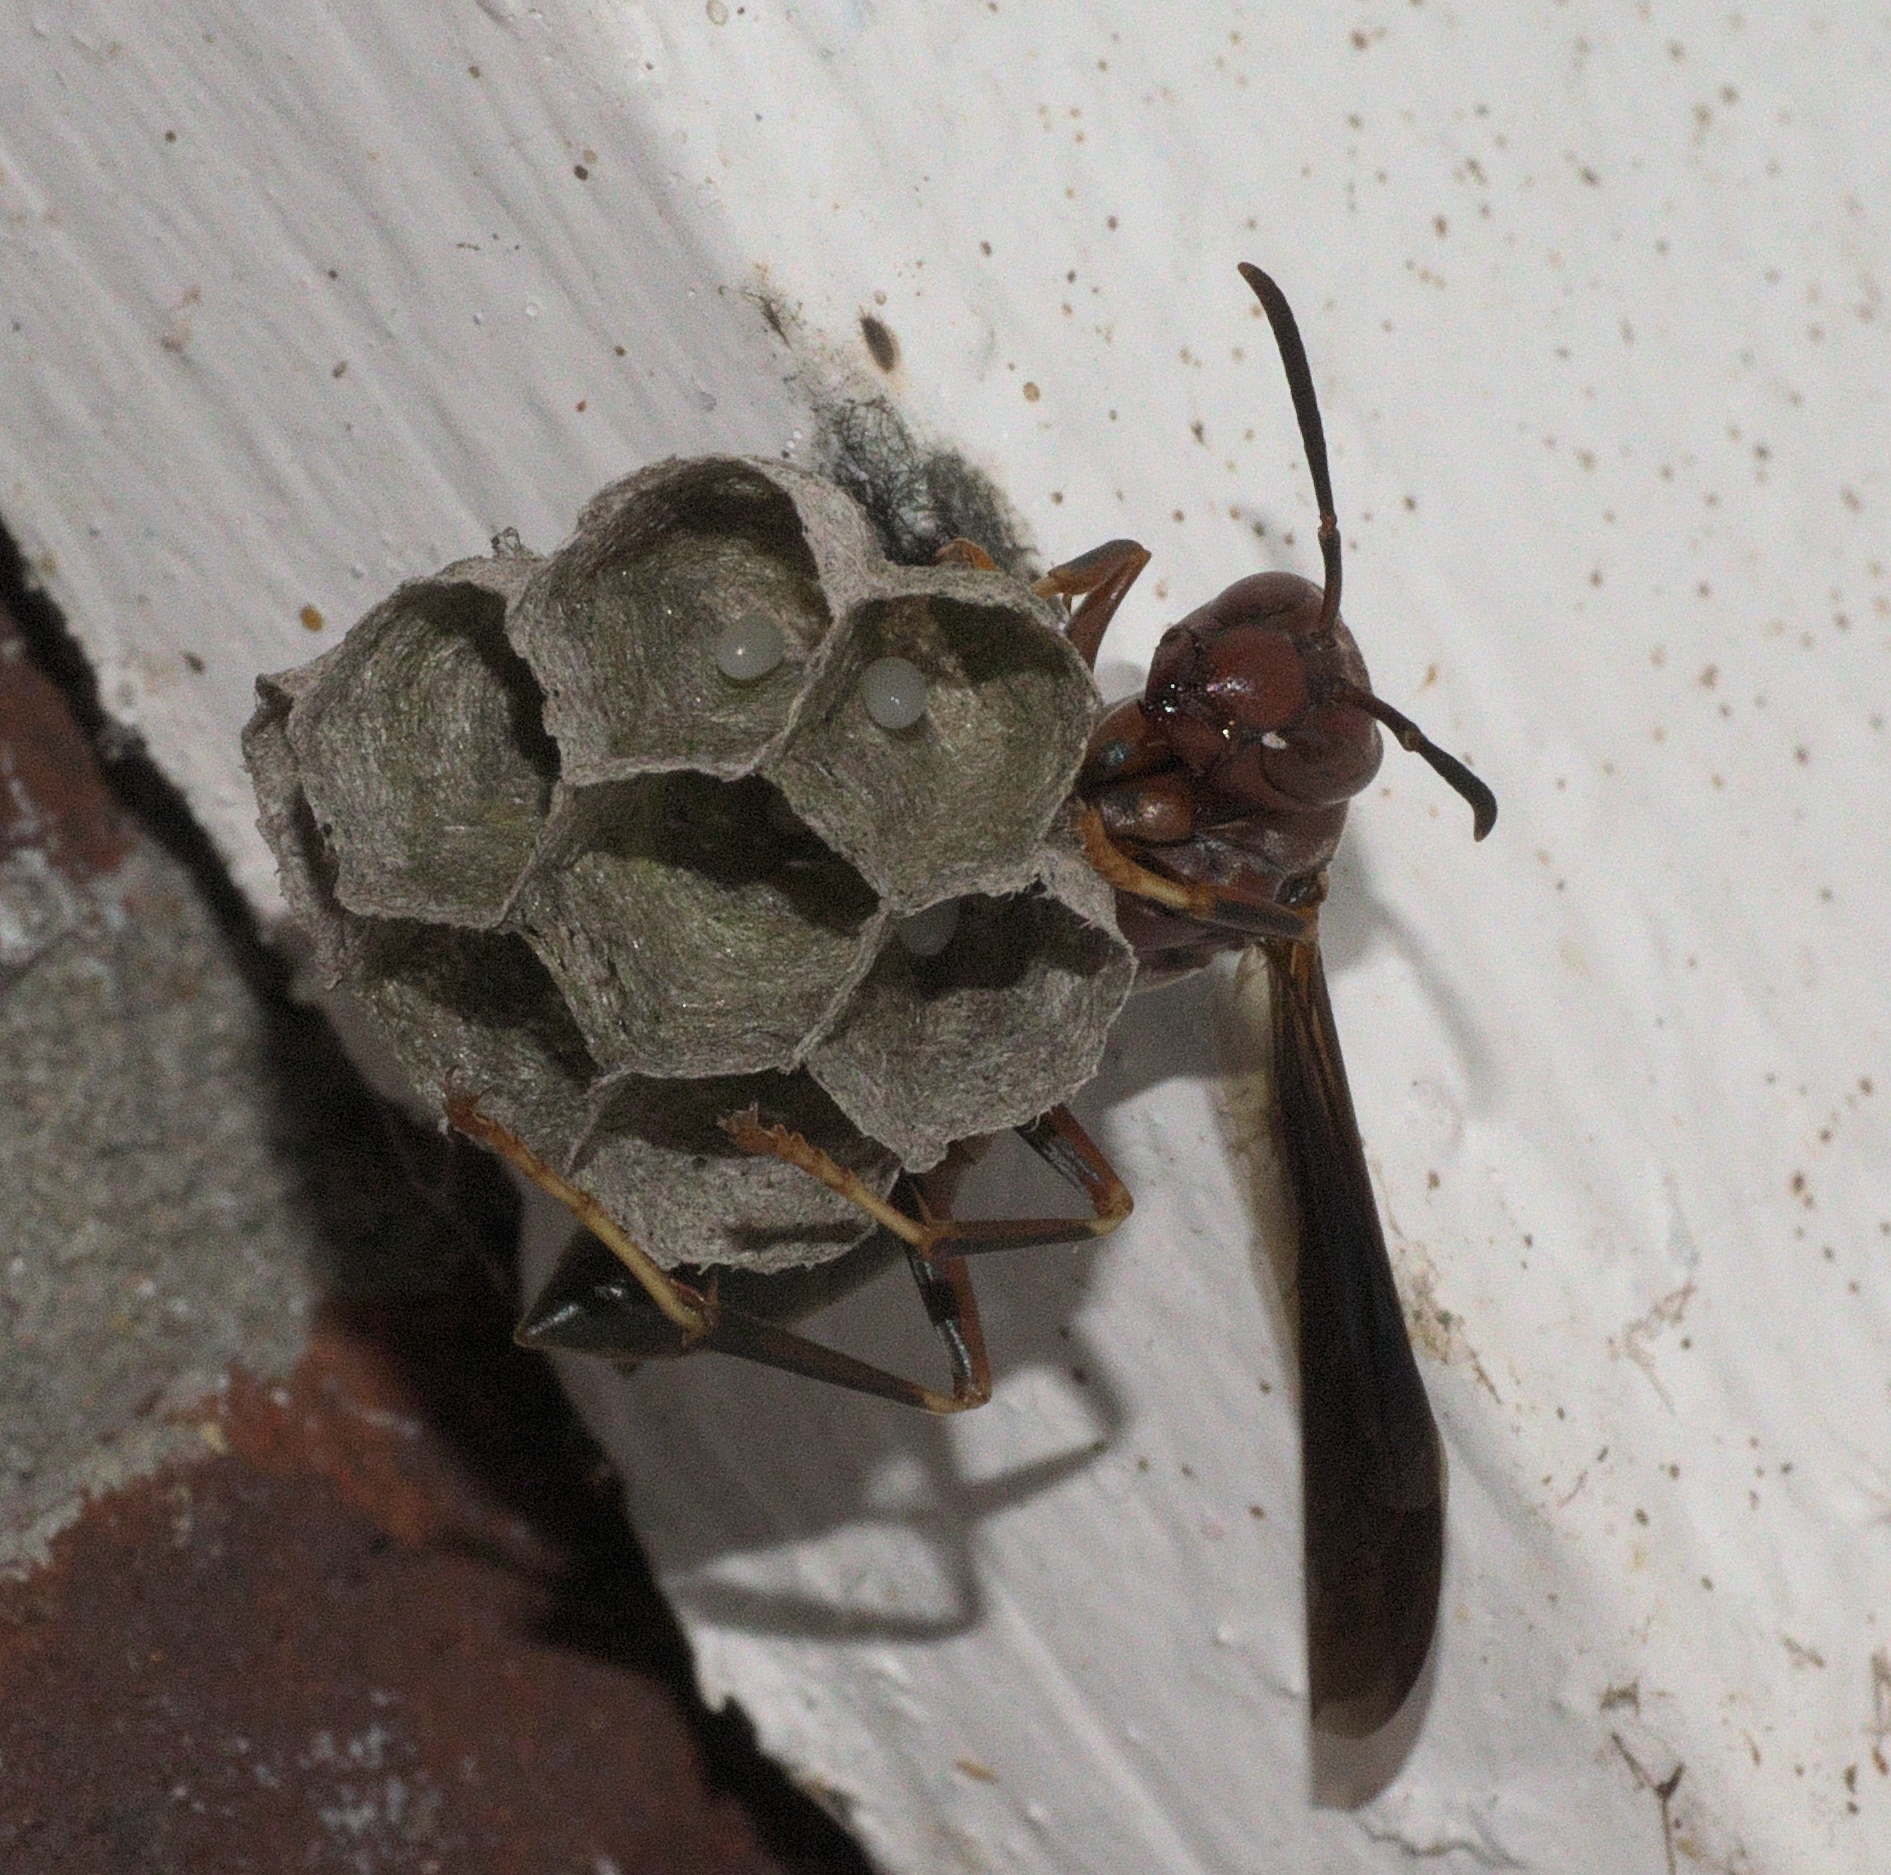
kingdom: Animalia
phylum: Arthropoda
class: Insecta
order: Hymenoptera
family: Eumenidae
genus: Polistes
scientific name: Polistes metricus
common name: Metric paper wasp
